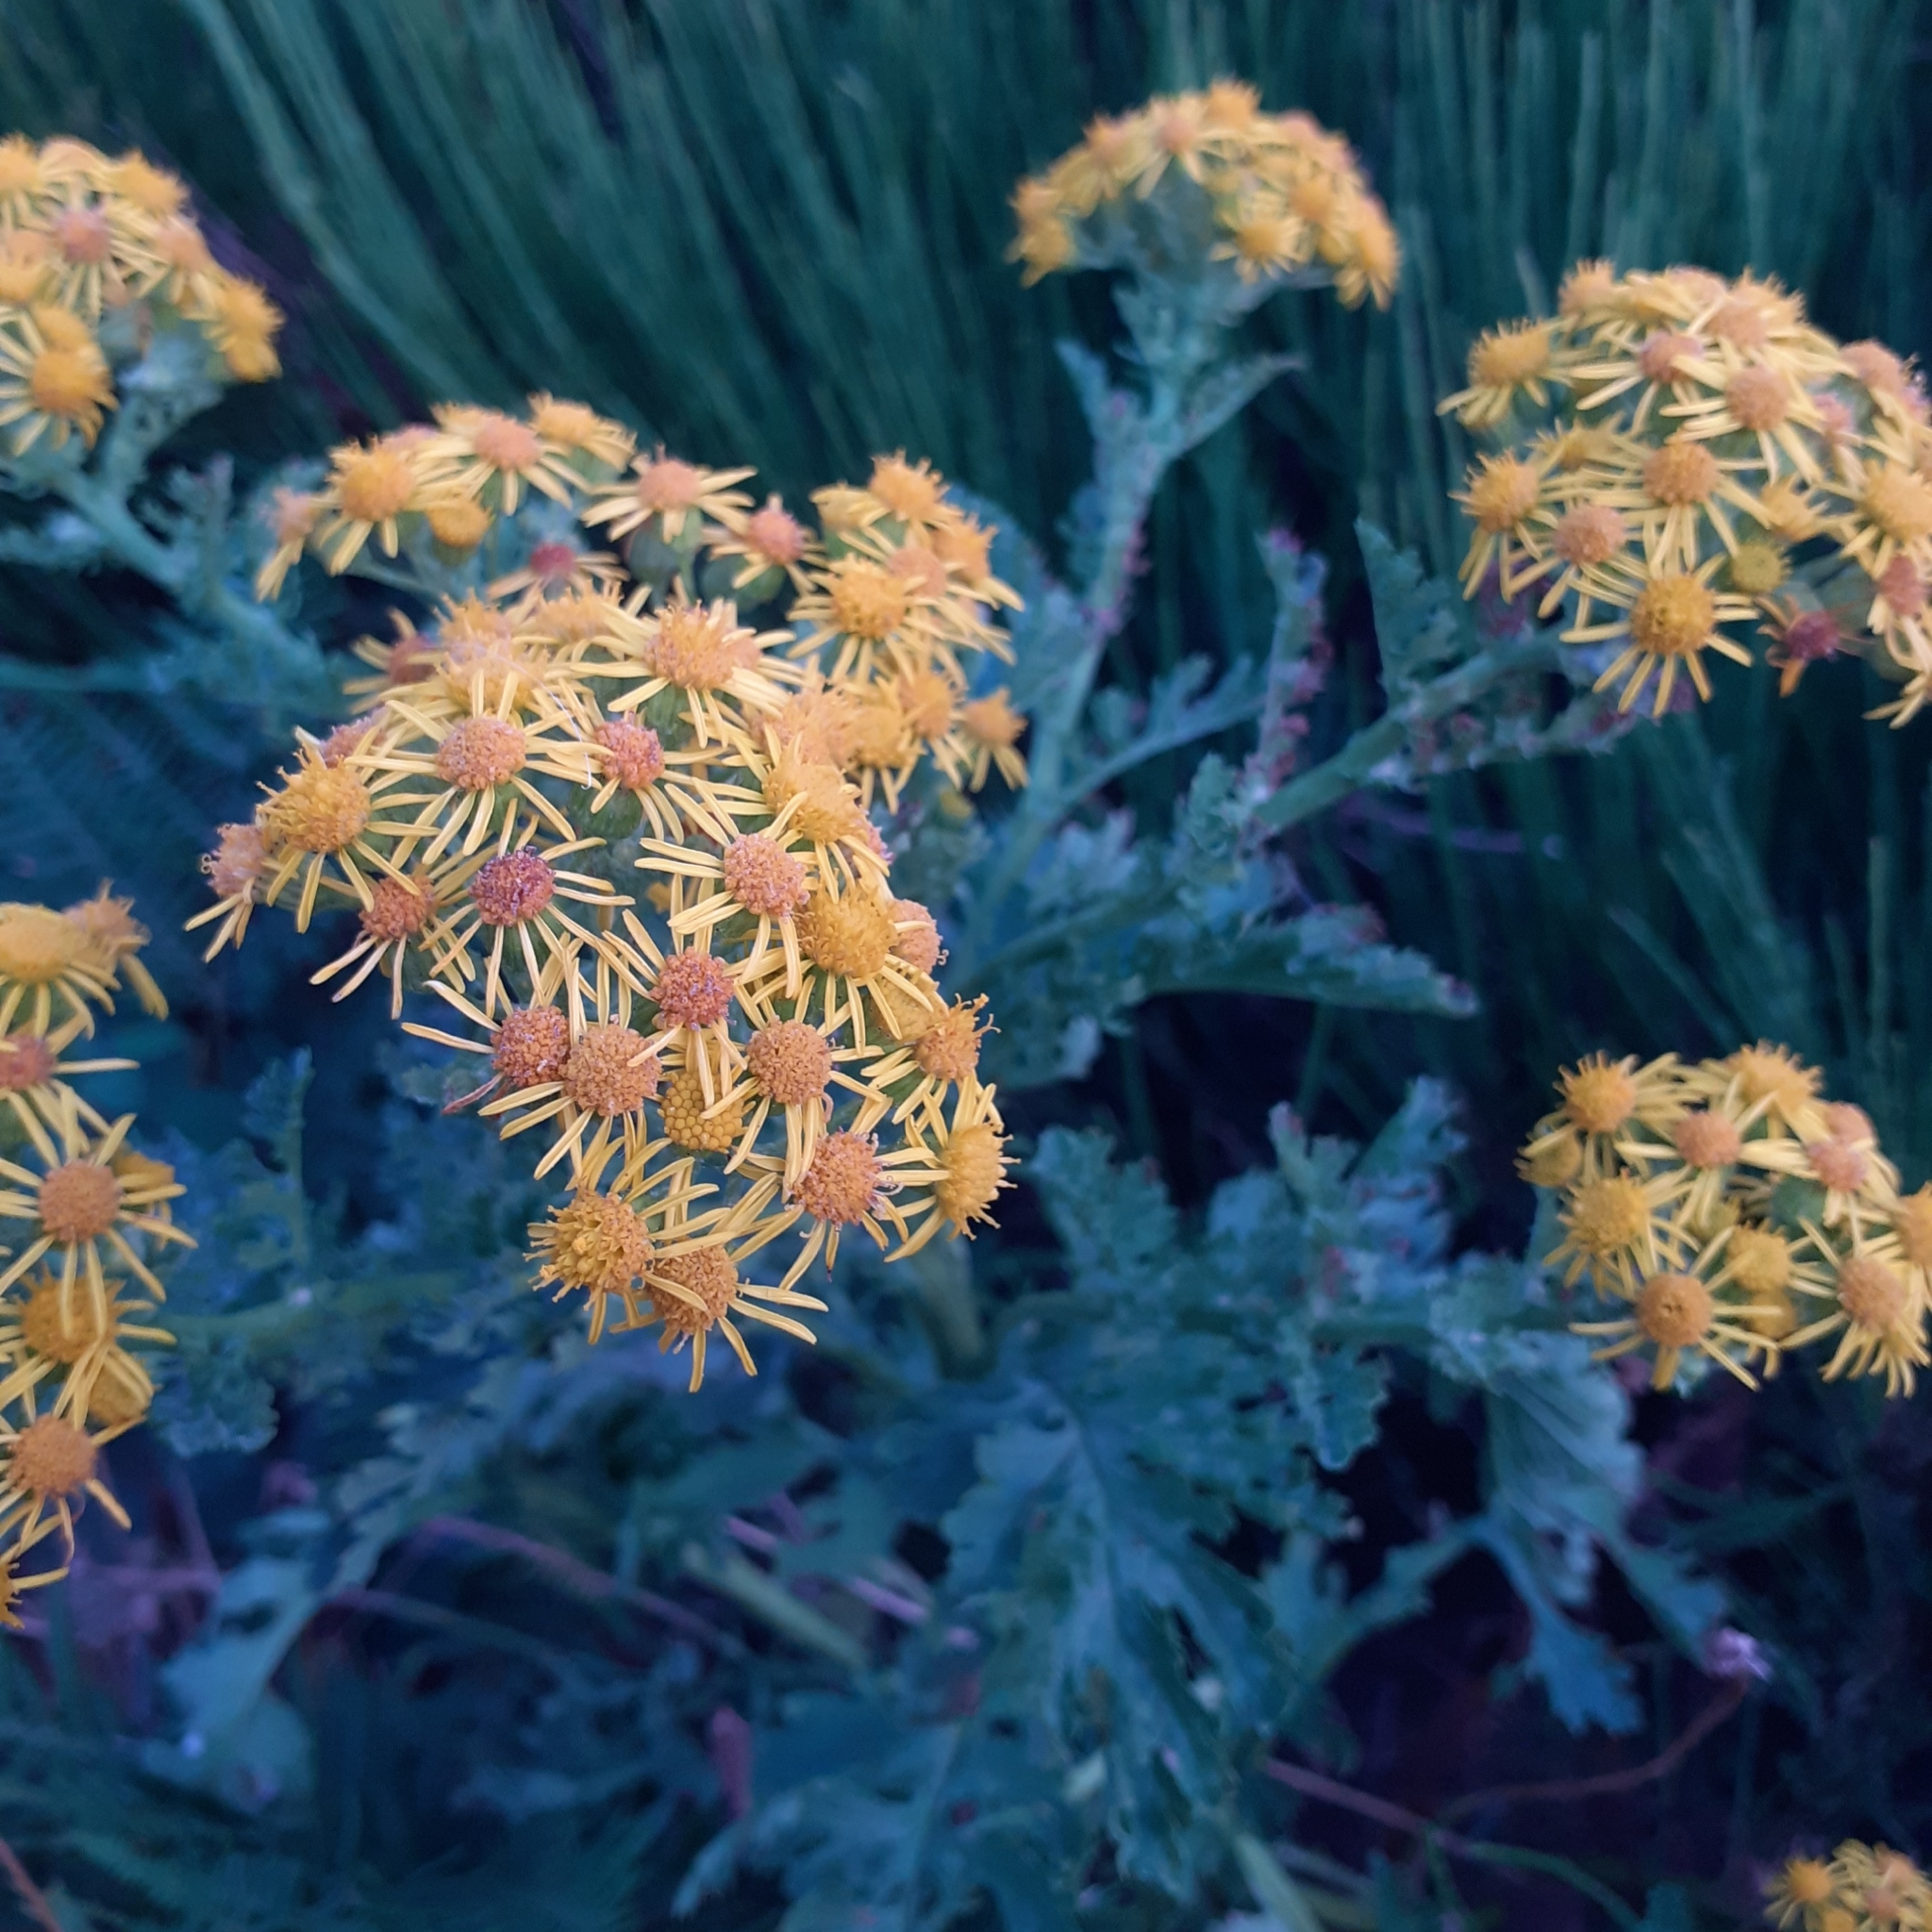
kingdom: Plantae
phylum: Tracheophyta
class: Magnoliopsida
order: Asterales
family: Asteraceae
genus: Jacobaea
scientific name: Jacobaea vulgaris
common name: Stinking willie
